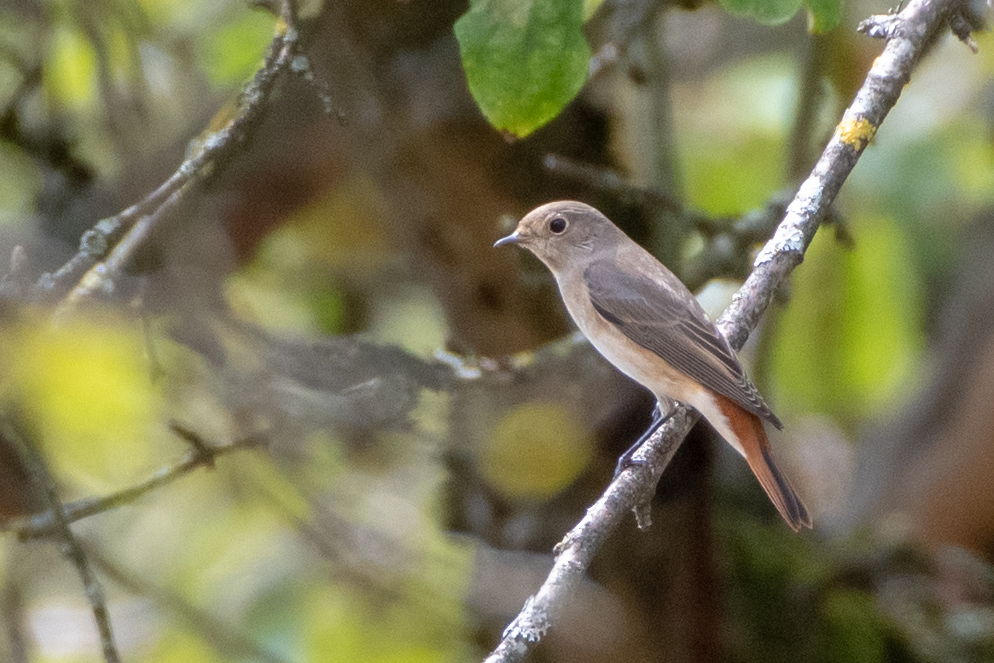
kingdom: Animalia
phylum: Chordata
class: Aves
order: Passeriformes
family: Muscicapidae
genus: Phoenicurus
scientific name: Phoenicurus phoenicurus
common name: Common redstart
